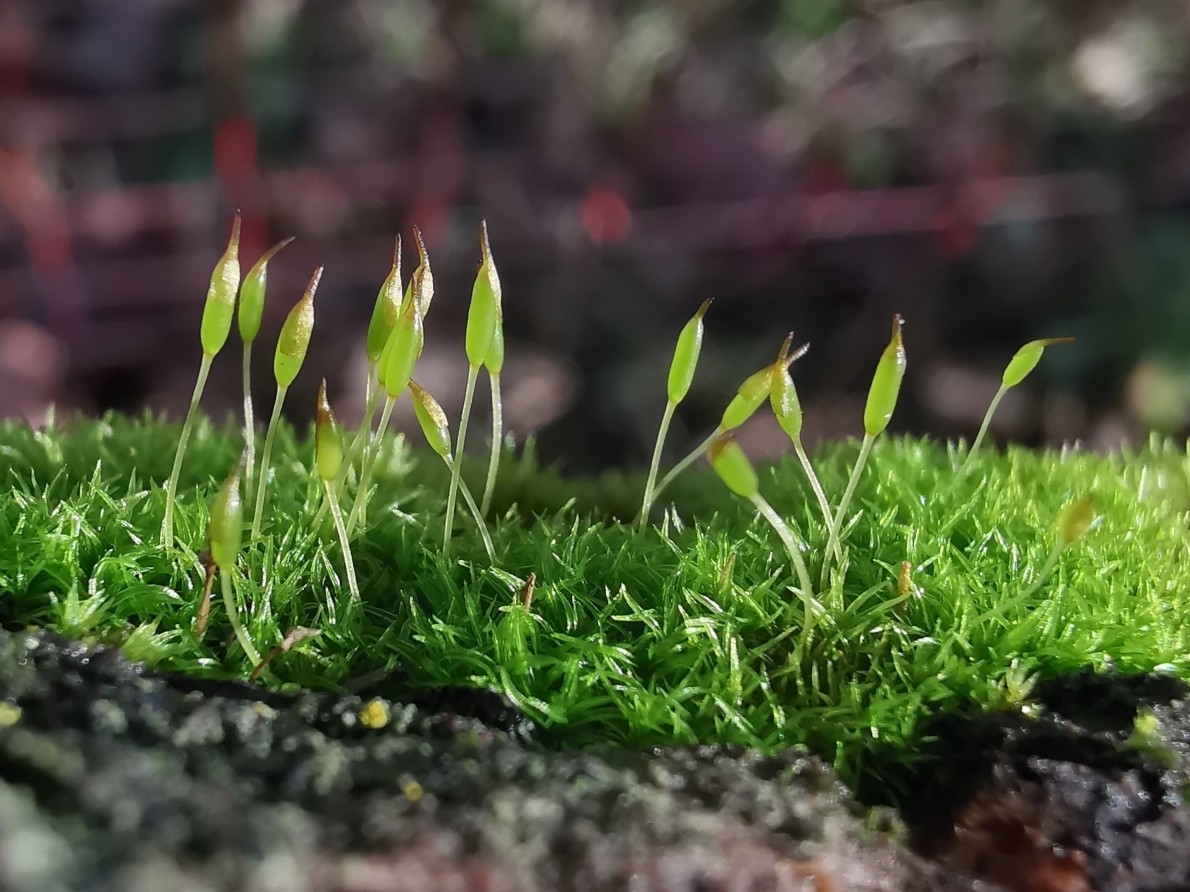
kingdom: Plantae
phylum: Bryophyta
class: Bryopsida
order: Dicranales
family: Rhabdoweisiaceae
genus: Dicranoweisia
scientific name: Dicranoweisia cirrata
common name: Common pincushion
